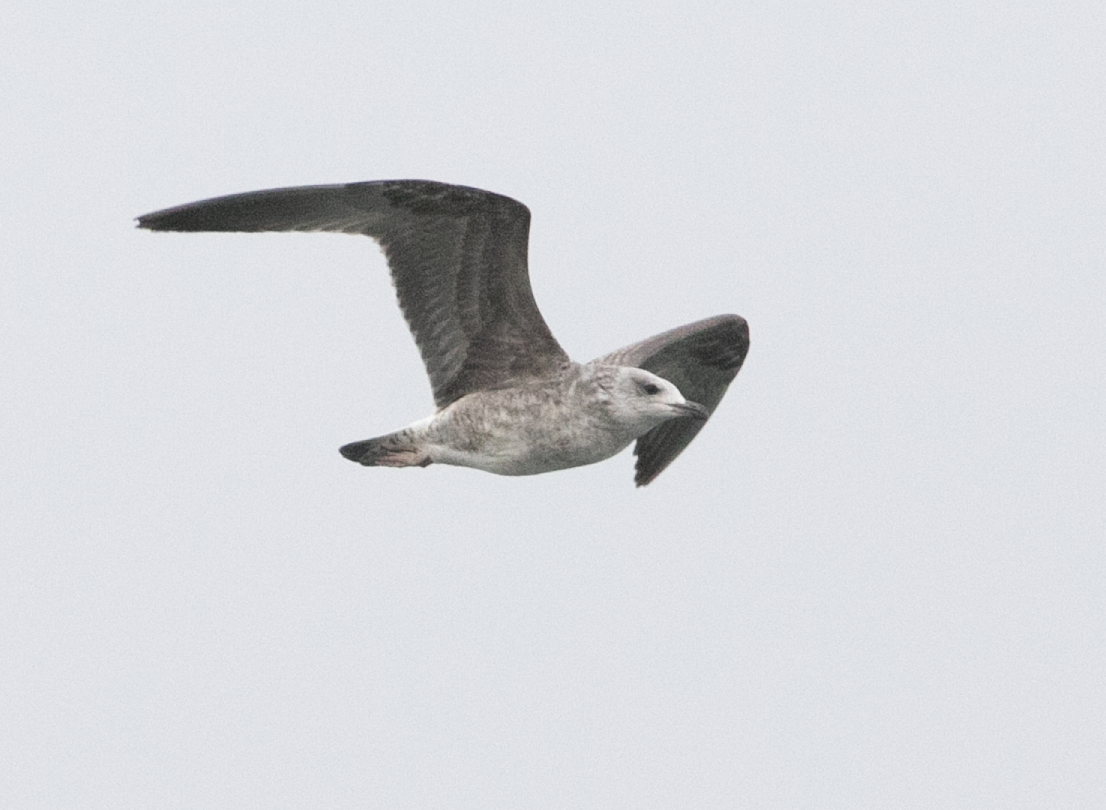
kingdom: Animalia
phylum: Chordata
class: Aves
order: Charadriiformes
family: Laridae
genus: Larus
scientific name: Larus michahellis
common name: Yellow-legged gull
